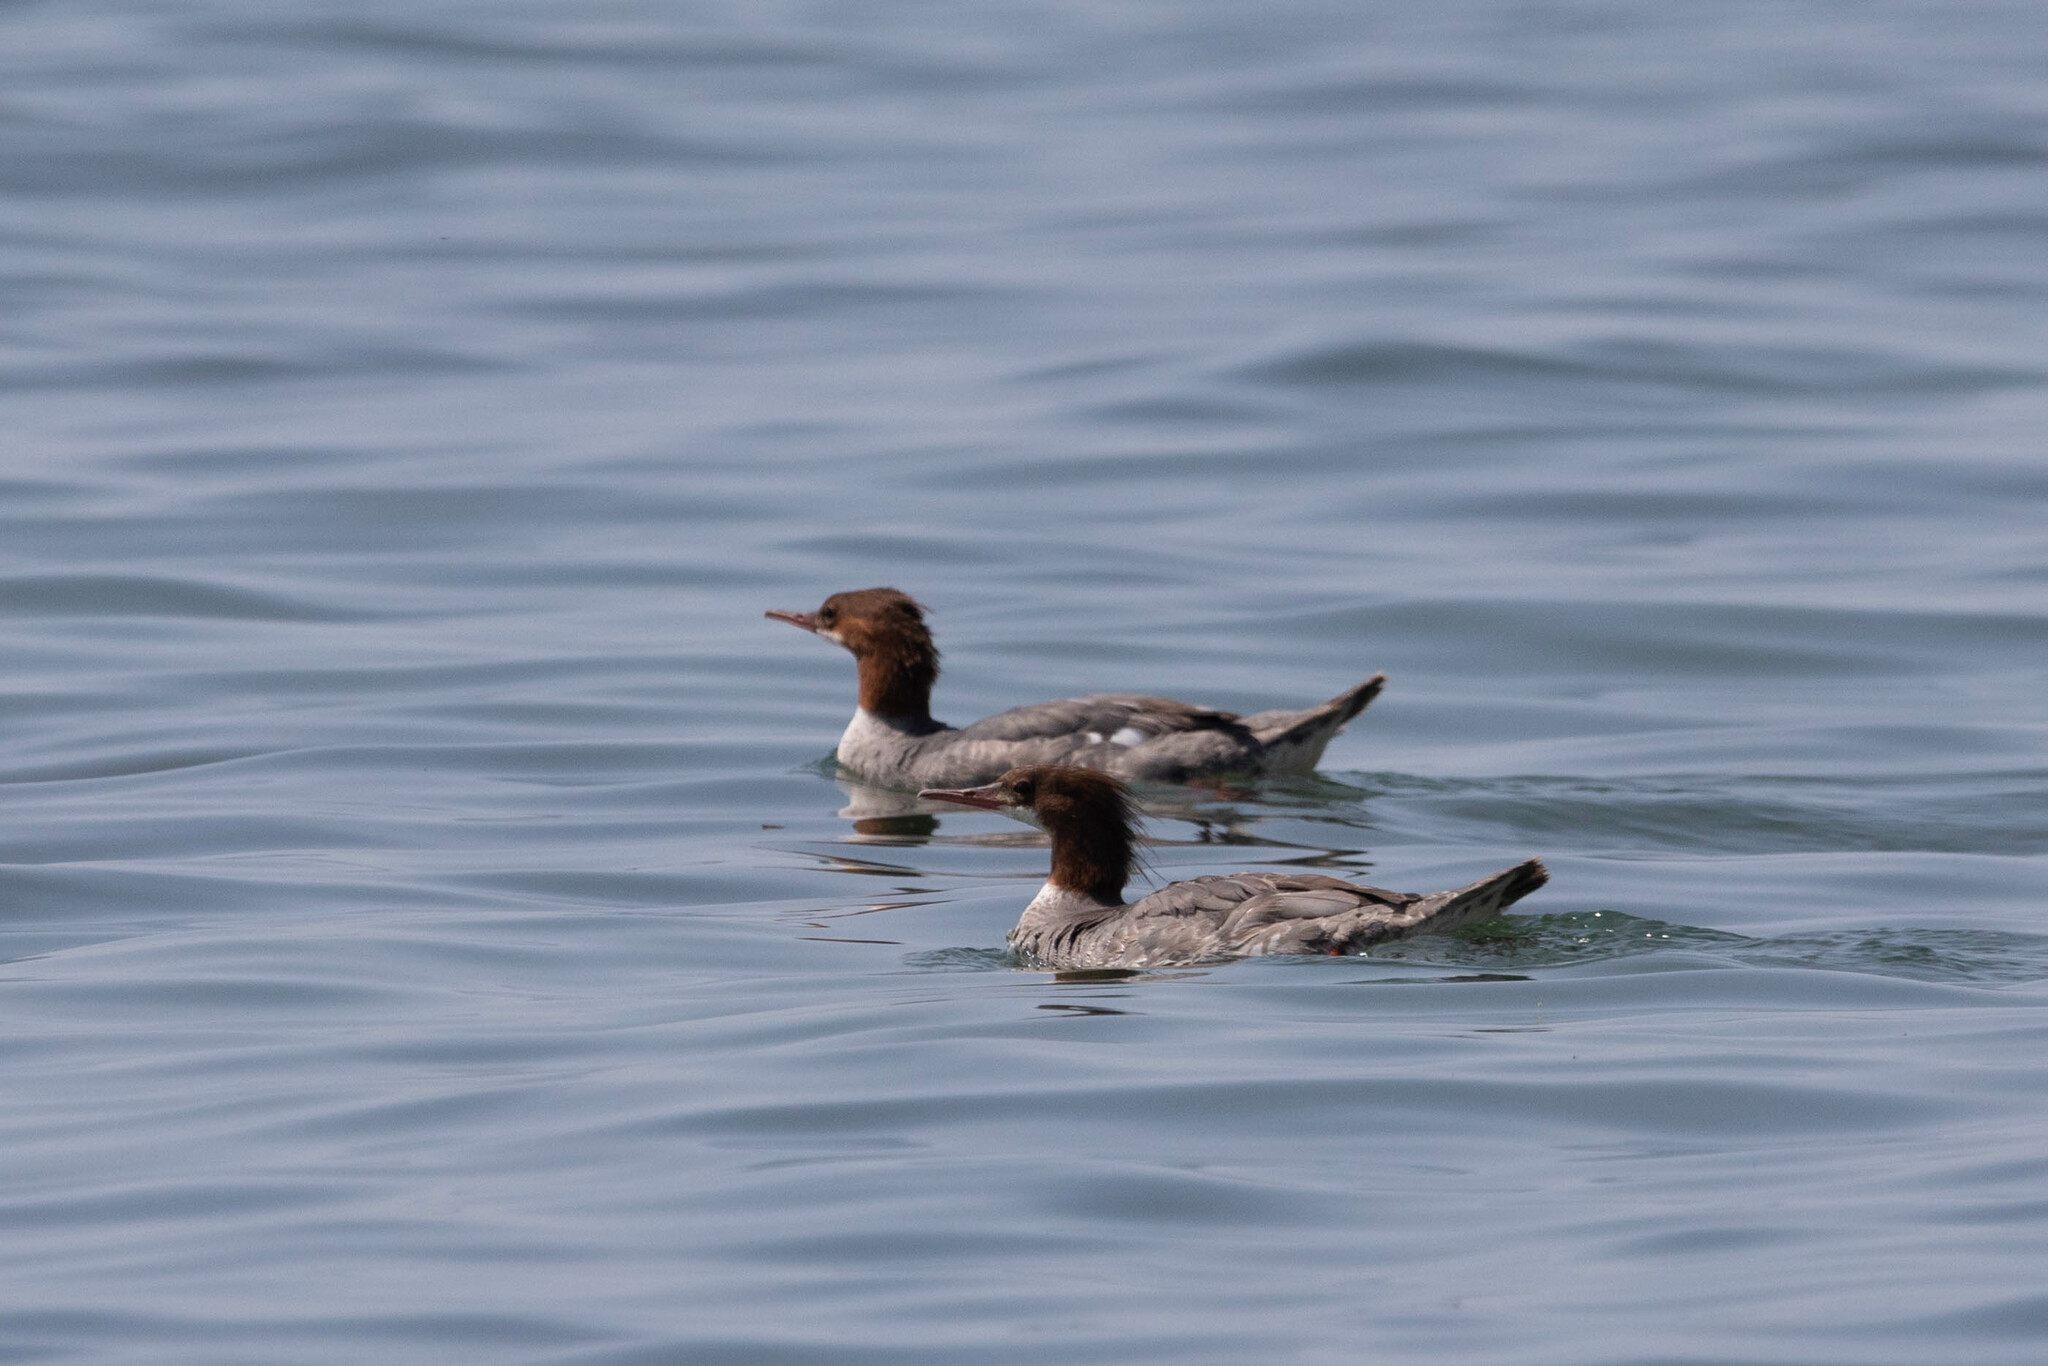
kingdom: Animalia
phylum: Chordata
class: Aves
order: Anseriformes
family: Anatidae
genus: Mergus
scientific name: Mergus merganser
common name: Common merganser
